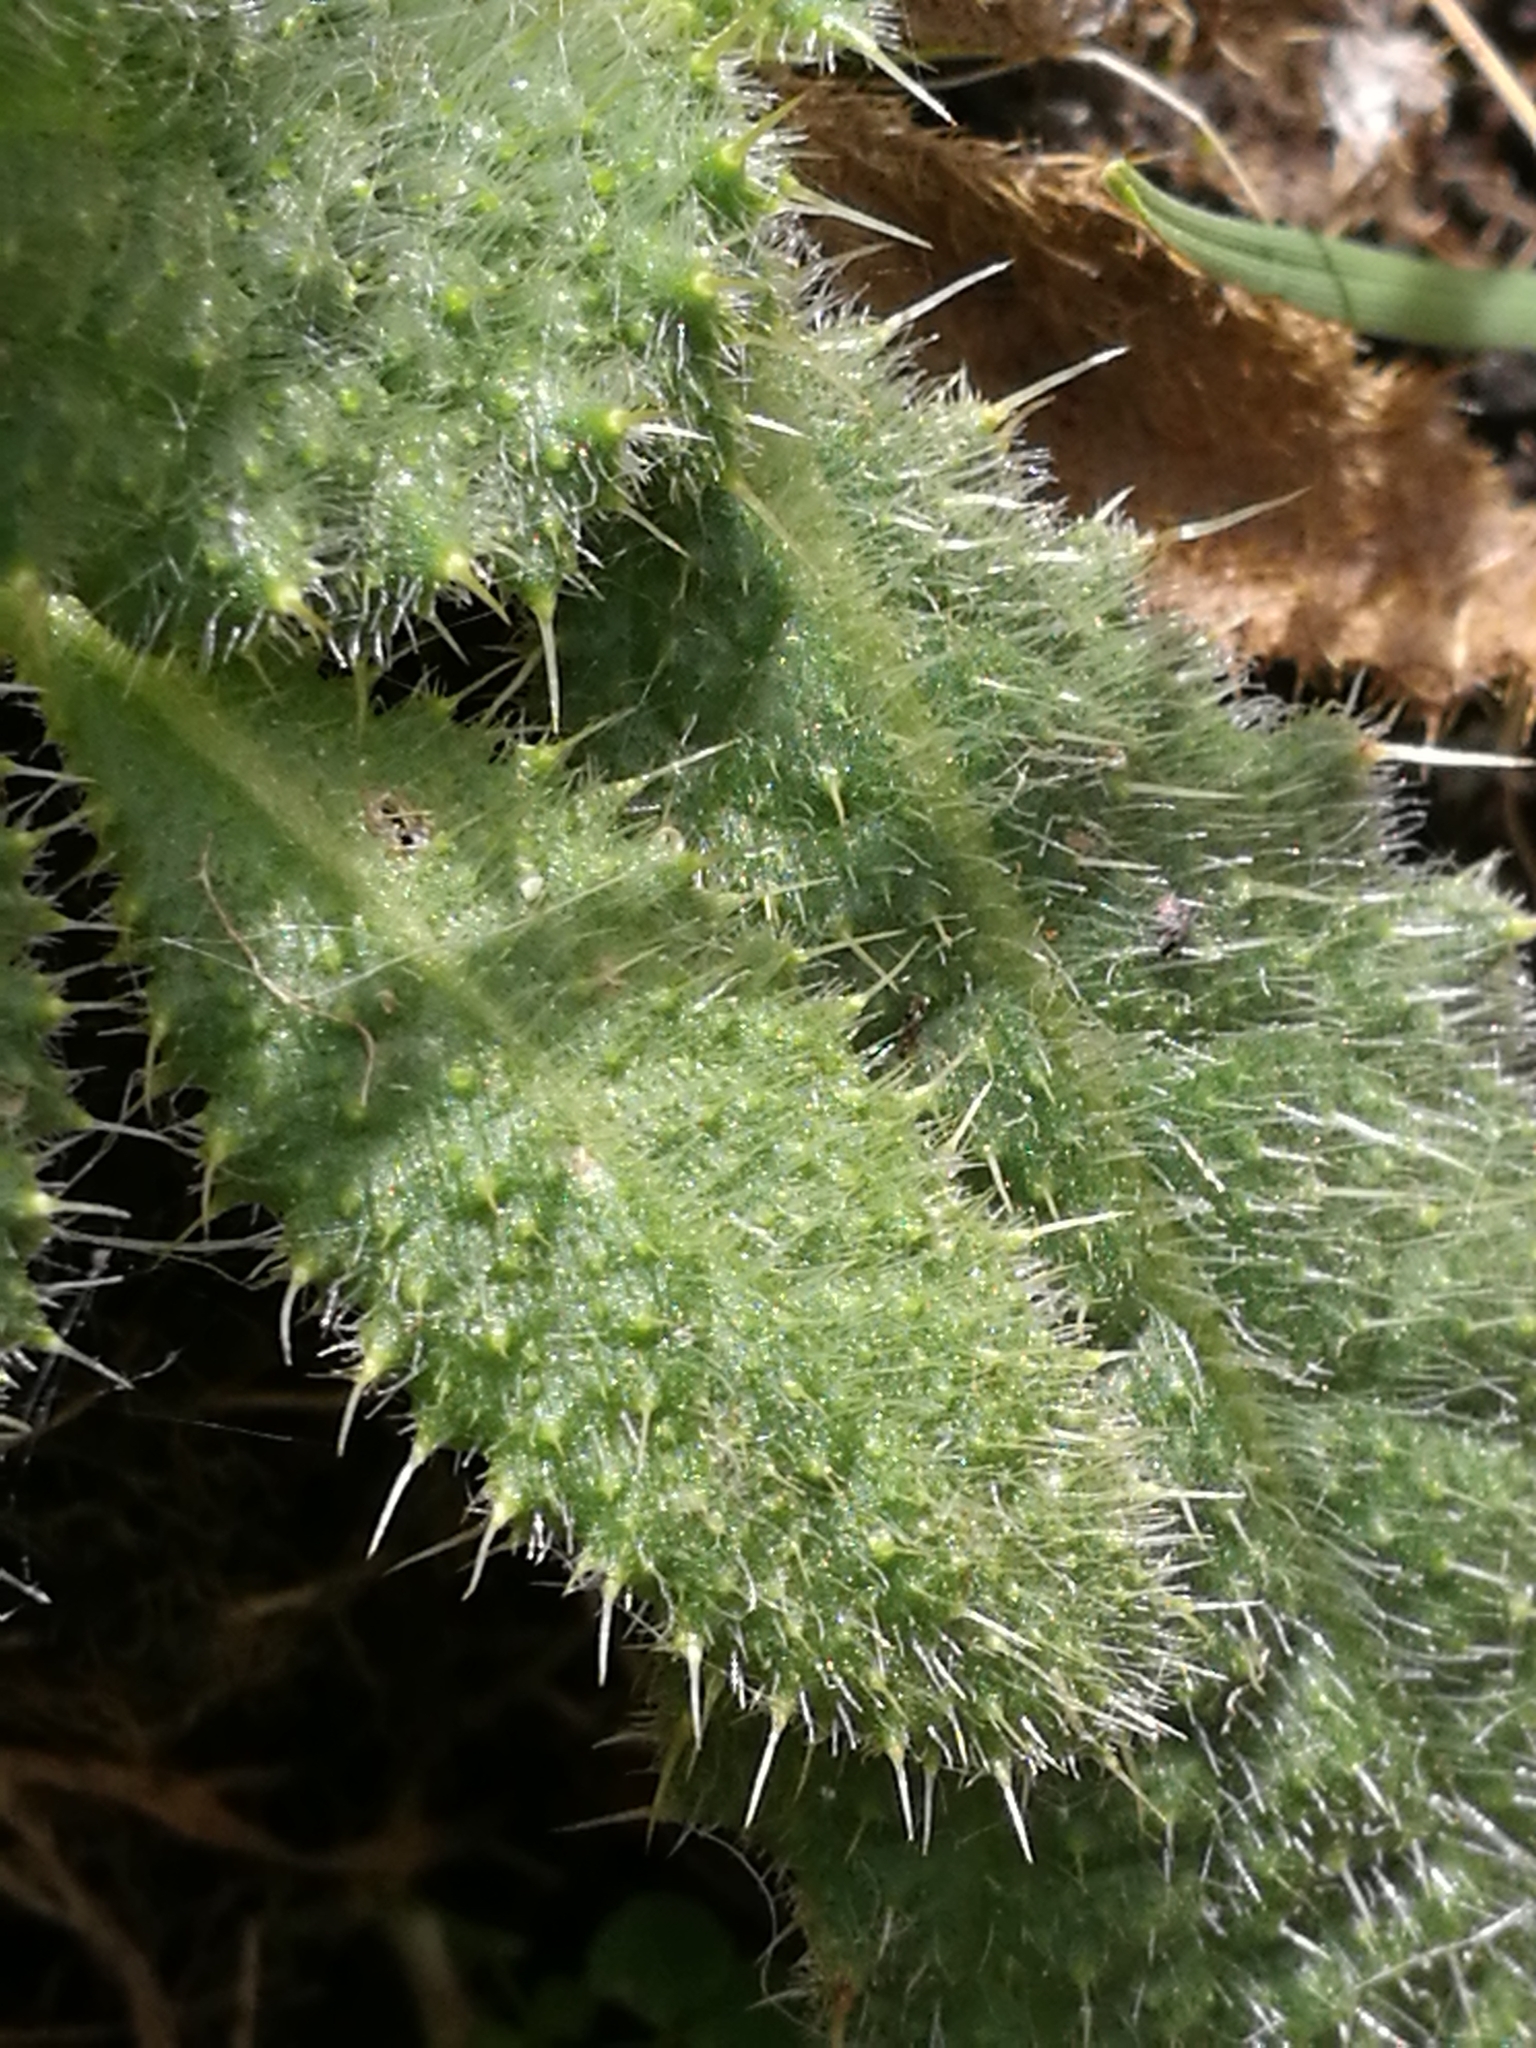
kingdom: Plantae
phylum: Tracheophyta
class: Magnoliopsida
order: Asterales
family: Asteraceae
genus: Cirsium
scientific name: Cirsium vulgare
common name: Bull thistle
